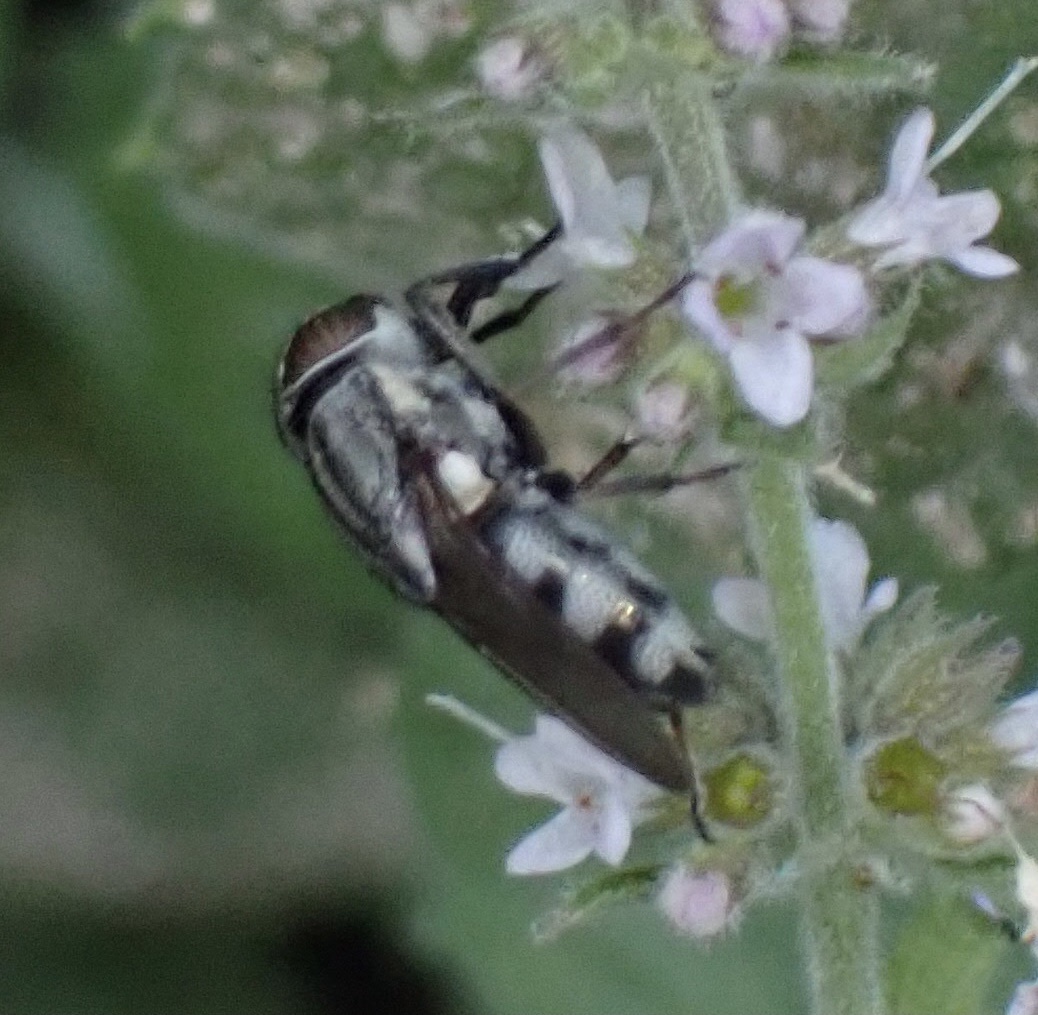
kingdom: Animalia
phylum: Arthropoda
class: Insecta
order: Diptera
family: Calliphoridae
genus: Stomorhina
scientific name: Stomorhina lunata
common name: Locust blowfly
